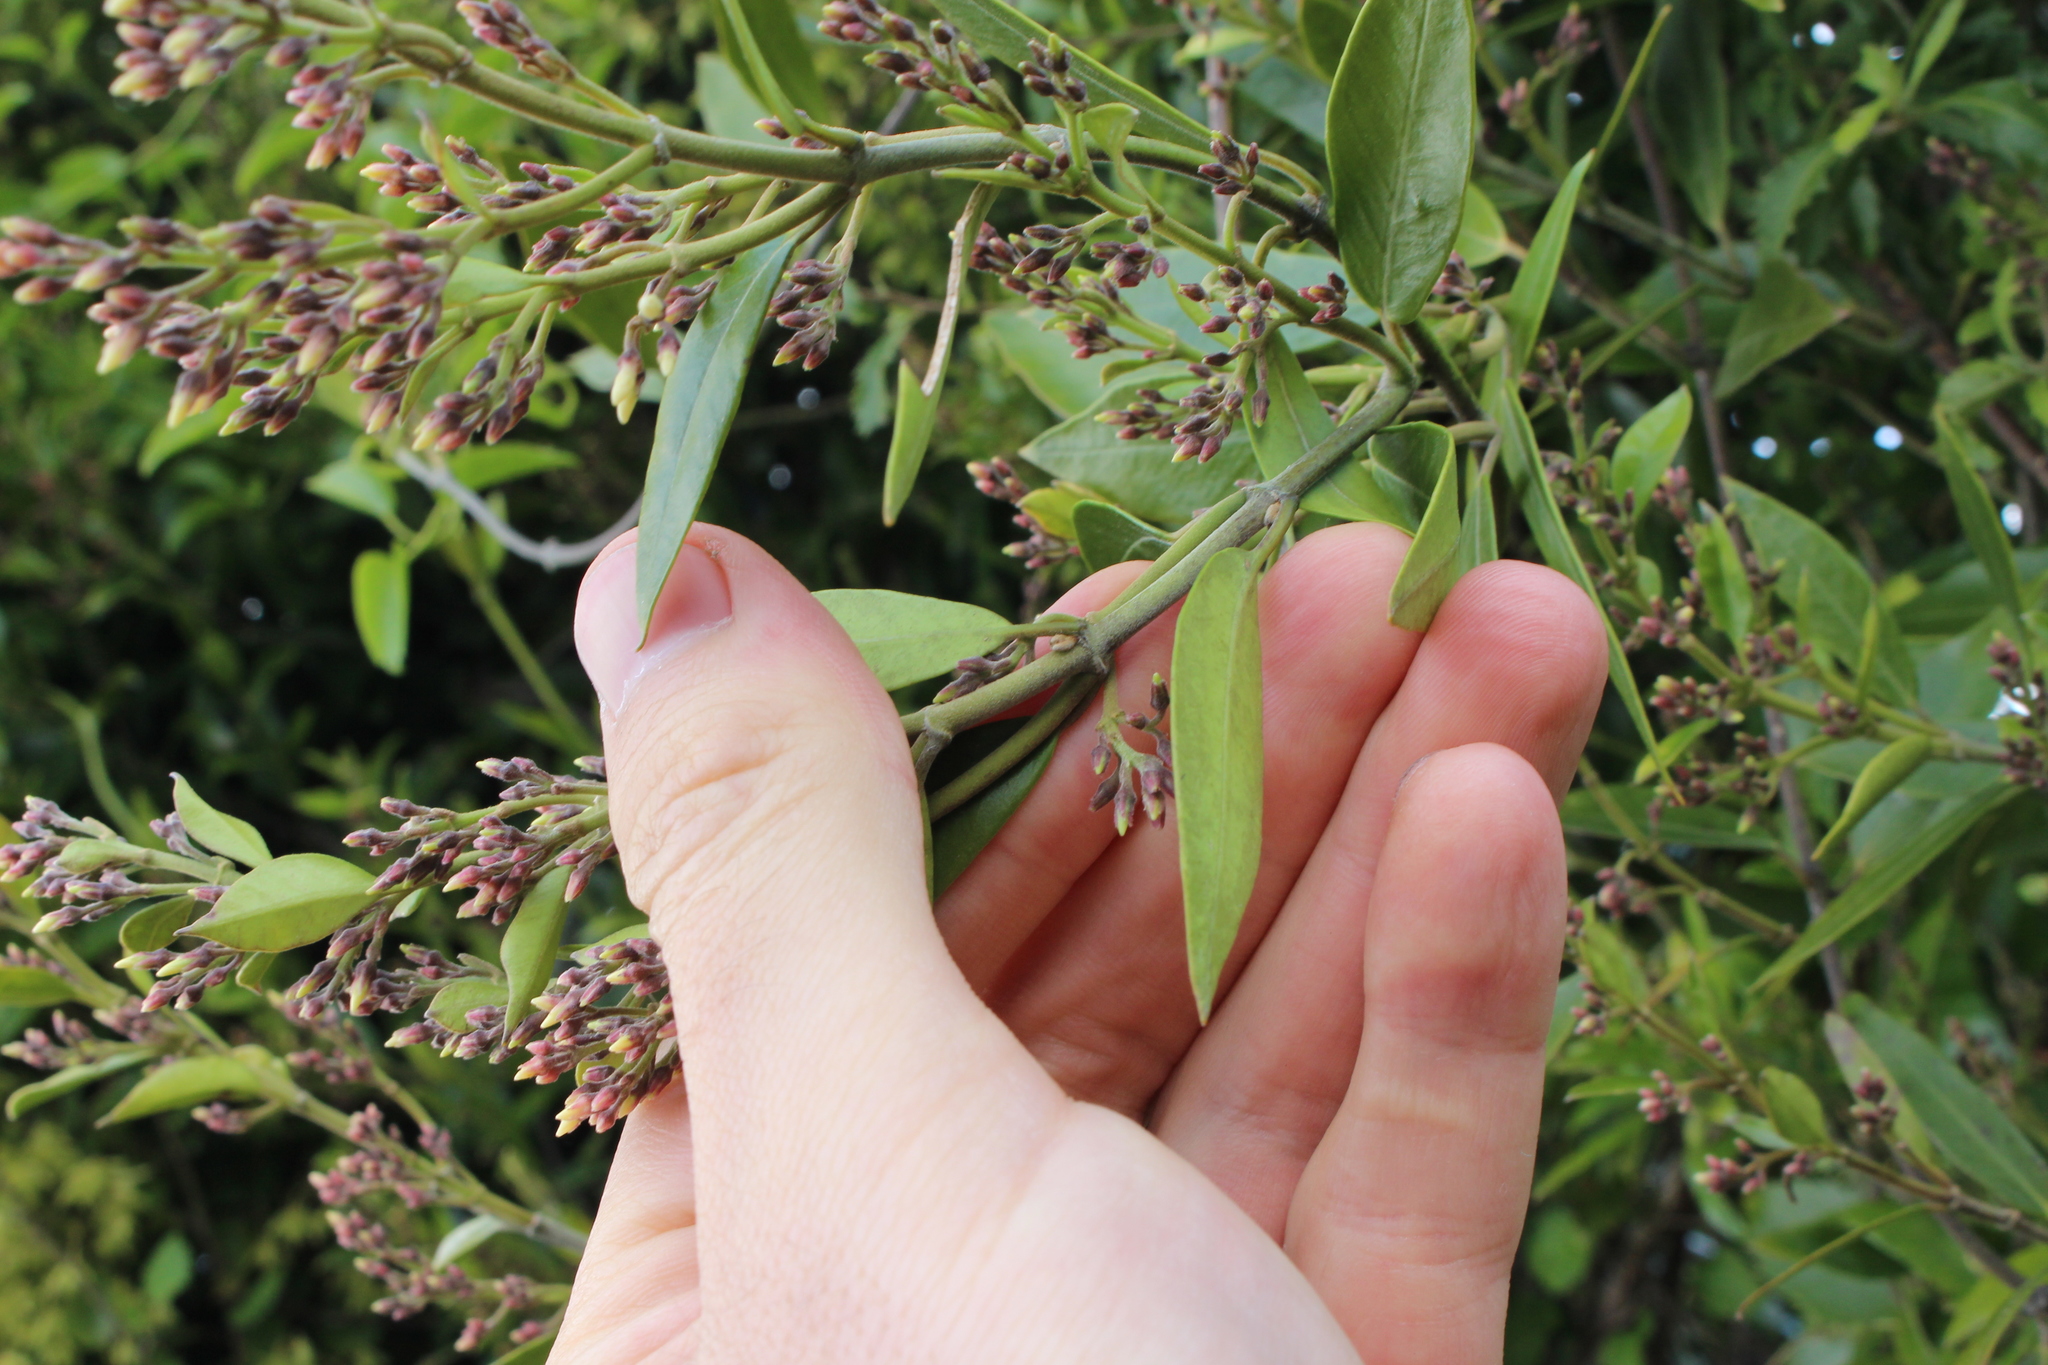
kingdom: Plantae
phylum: Tracheophyta
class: Magnoliopsida
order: Gentianales
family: Apocynaceae
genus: Parsonsia
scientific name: Parsonsia heterophylla
